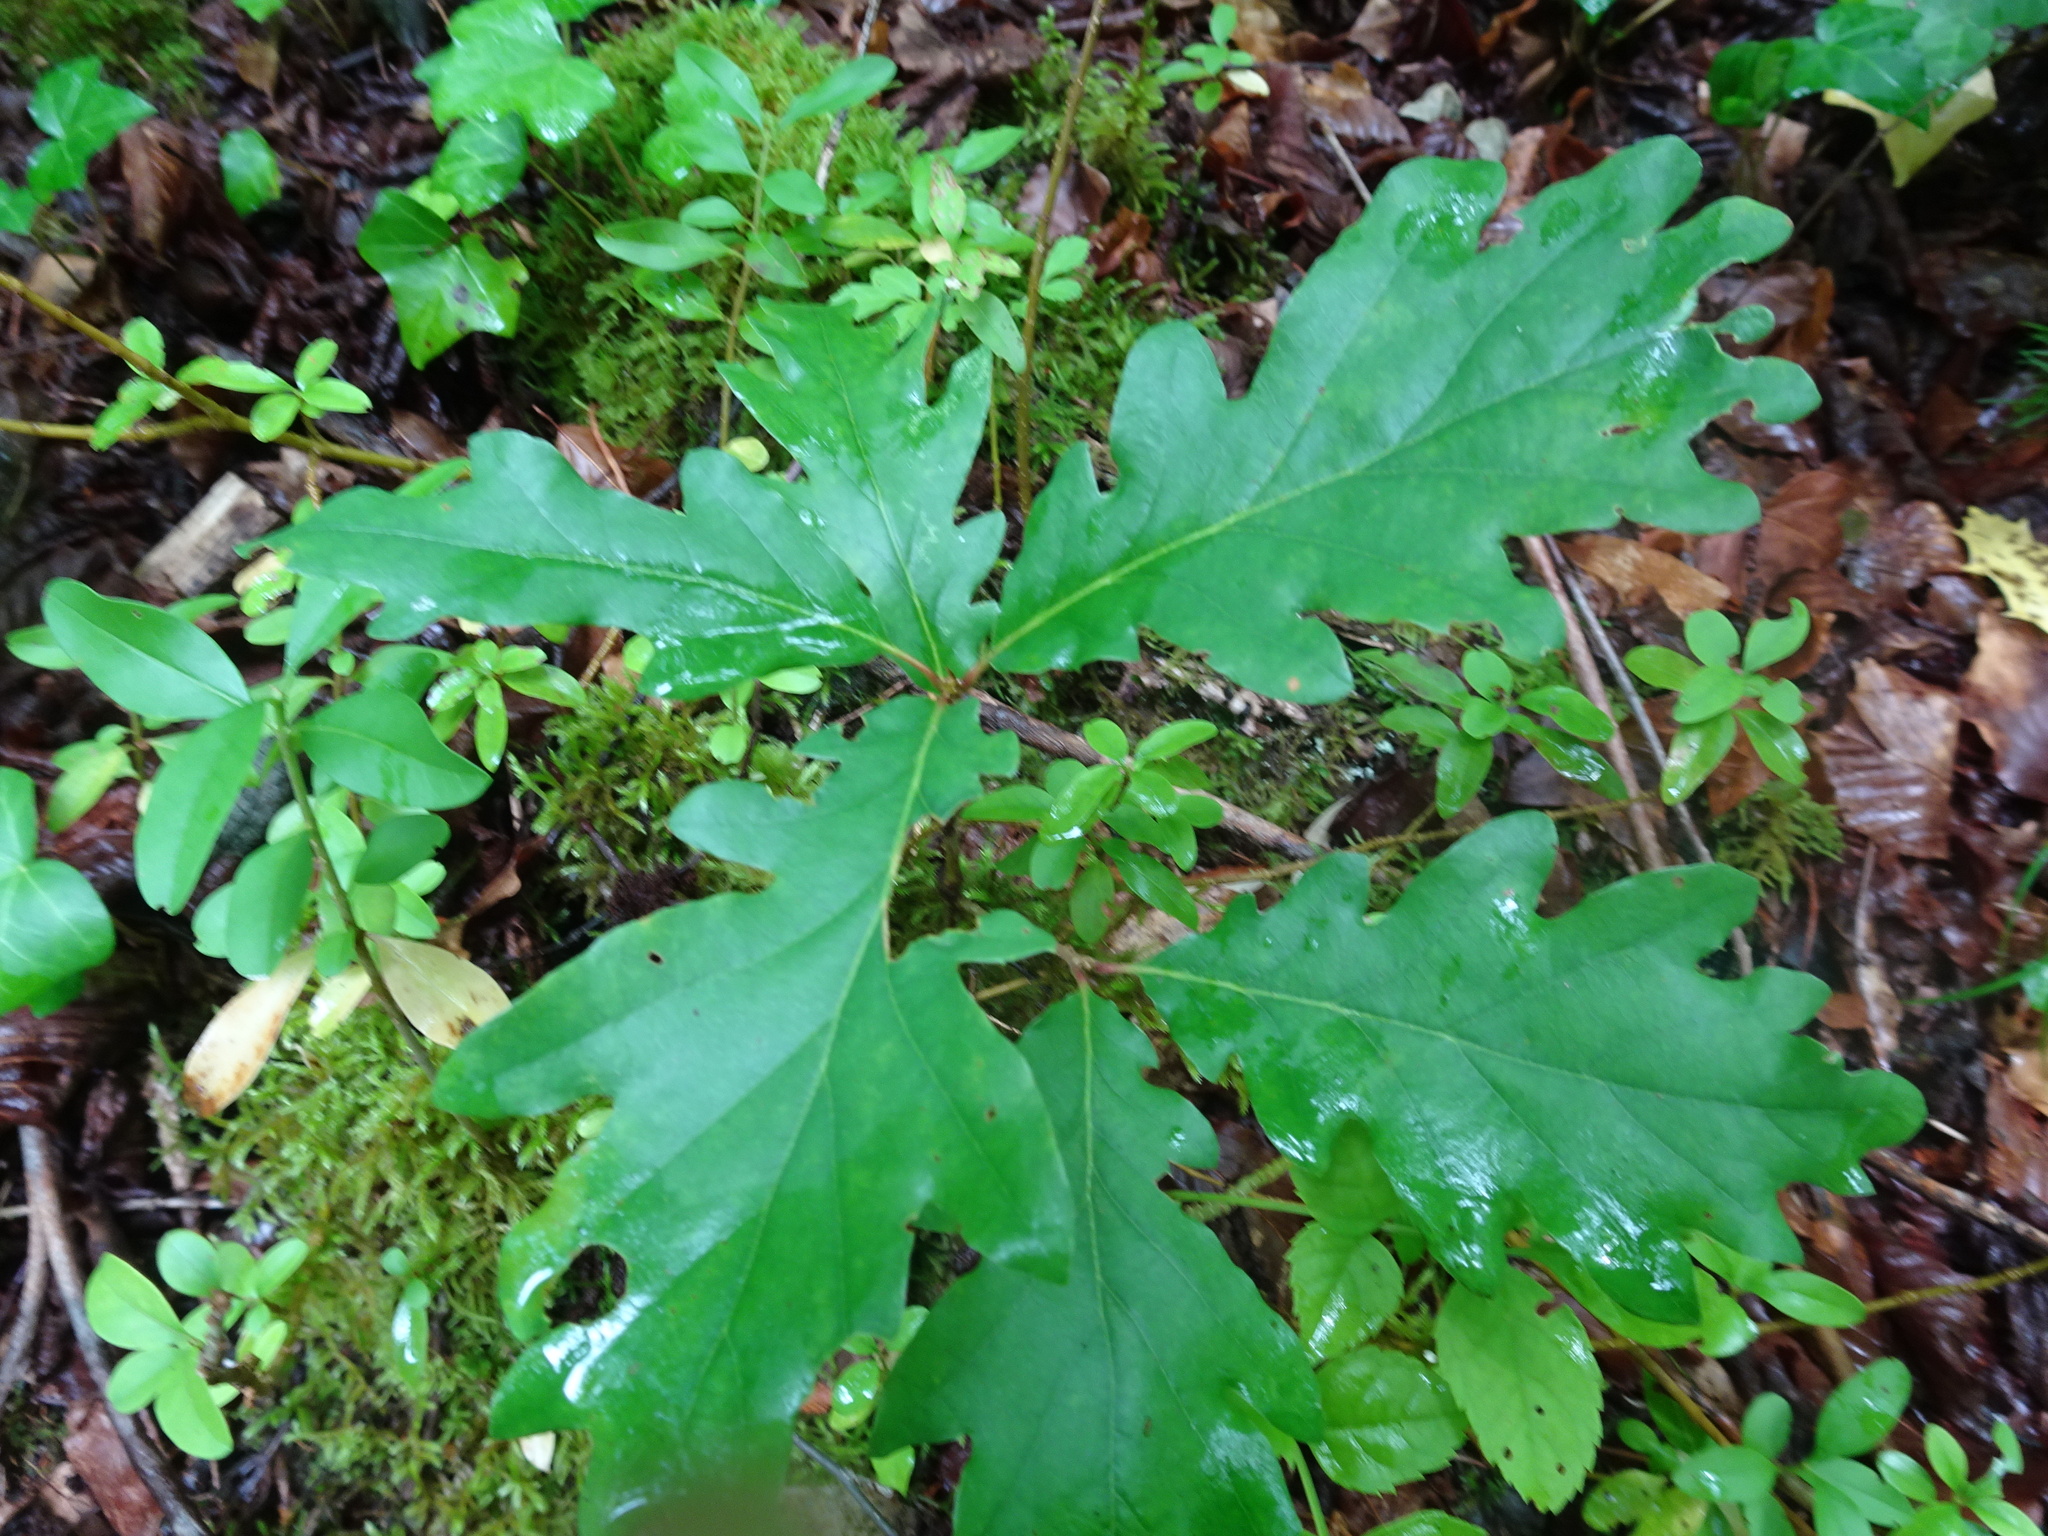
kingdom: Plantae
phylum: Tracheophyta
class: Magnoliopsida
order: Fagales
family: Fagaceae
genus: Quercus
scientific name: Quercus robur
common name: Pedunculate oak
